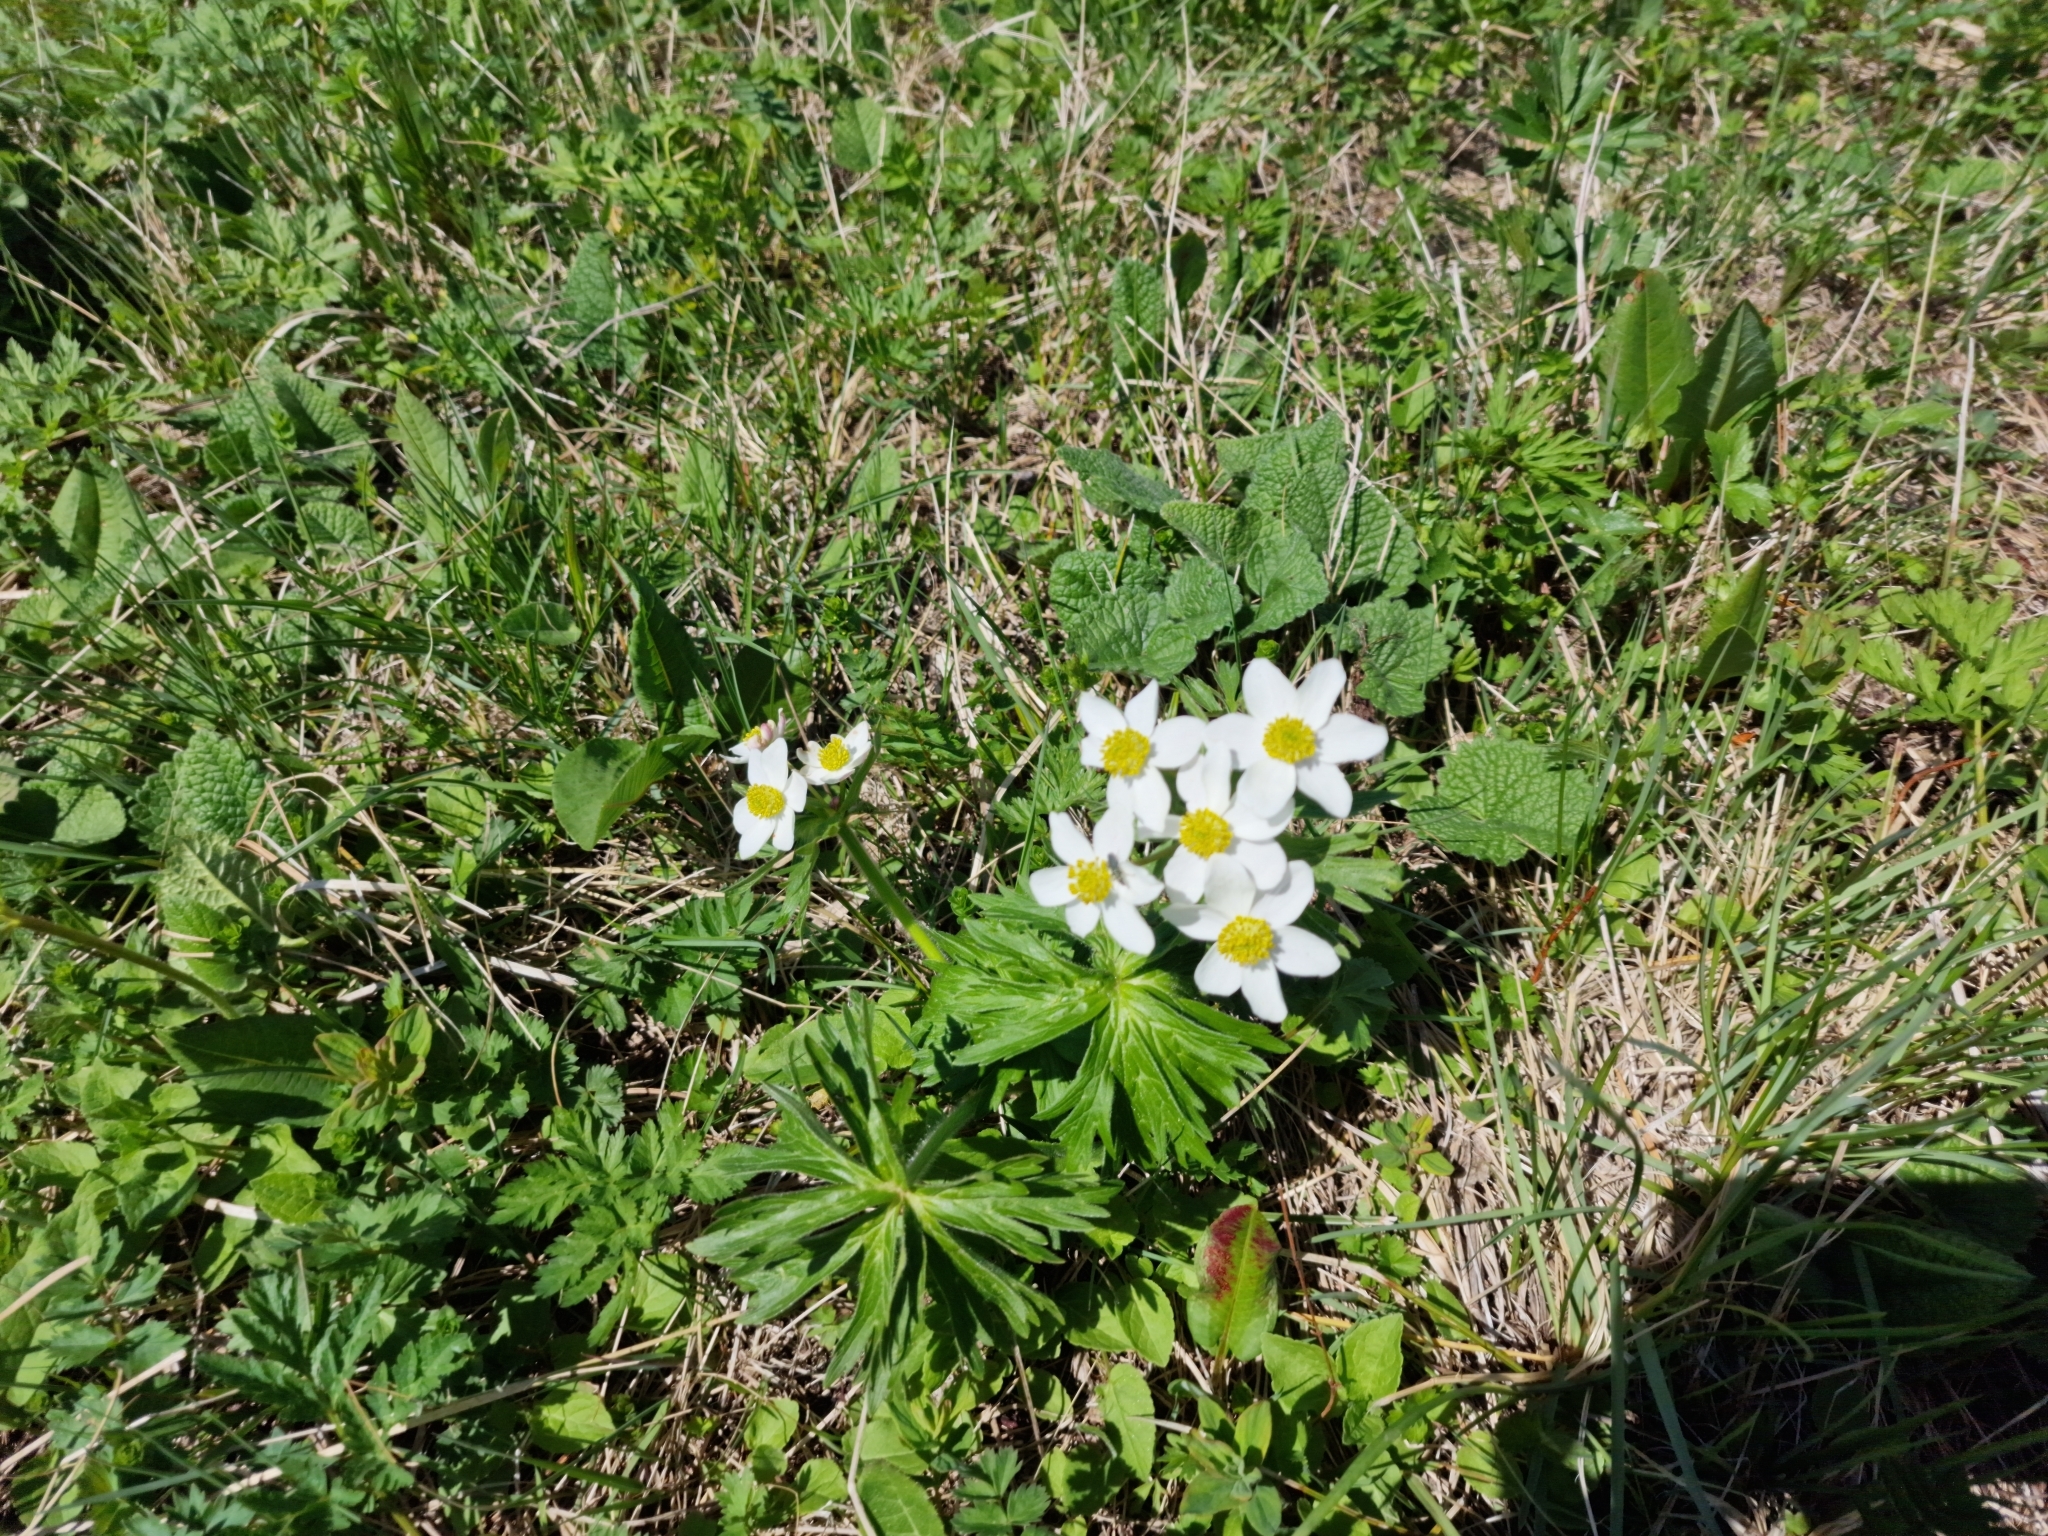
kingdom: Plantae
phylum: Tracheophyta
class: Magnoliopsida
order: Ranunculales
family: Ranunculaceae
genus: Anemonastrum
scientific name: Anemonastrum narcissiflorum
